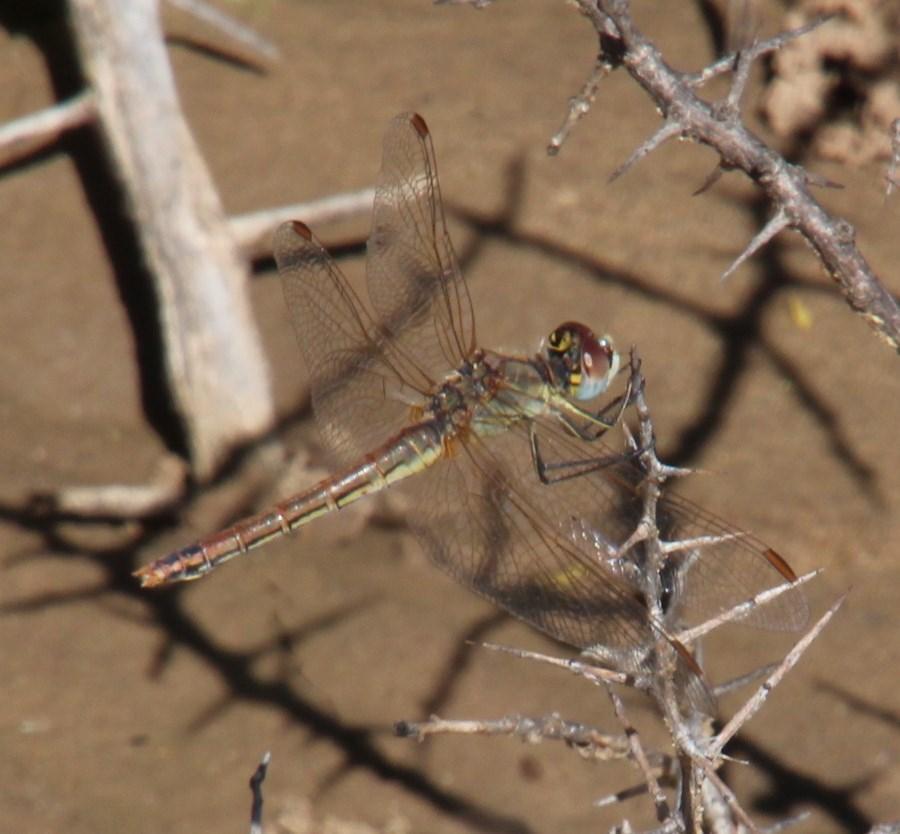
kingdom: Animalia
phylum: Arthropoda
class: Insecta
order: Odonata
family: Libellulidae
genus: Sympetrum
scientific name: Sympetrum fonscolombii
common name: Red-veined darter
